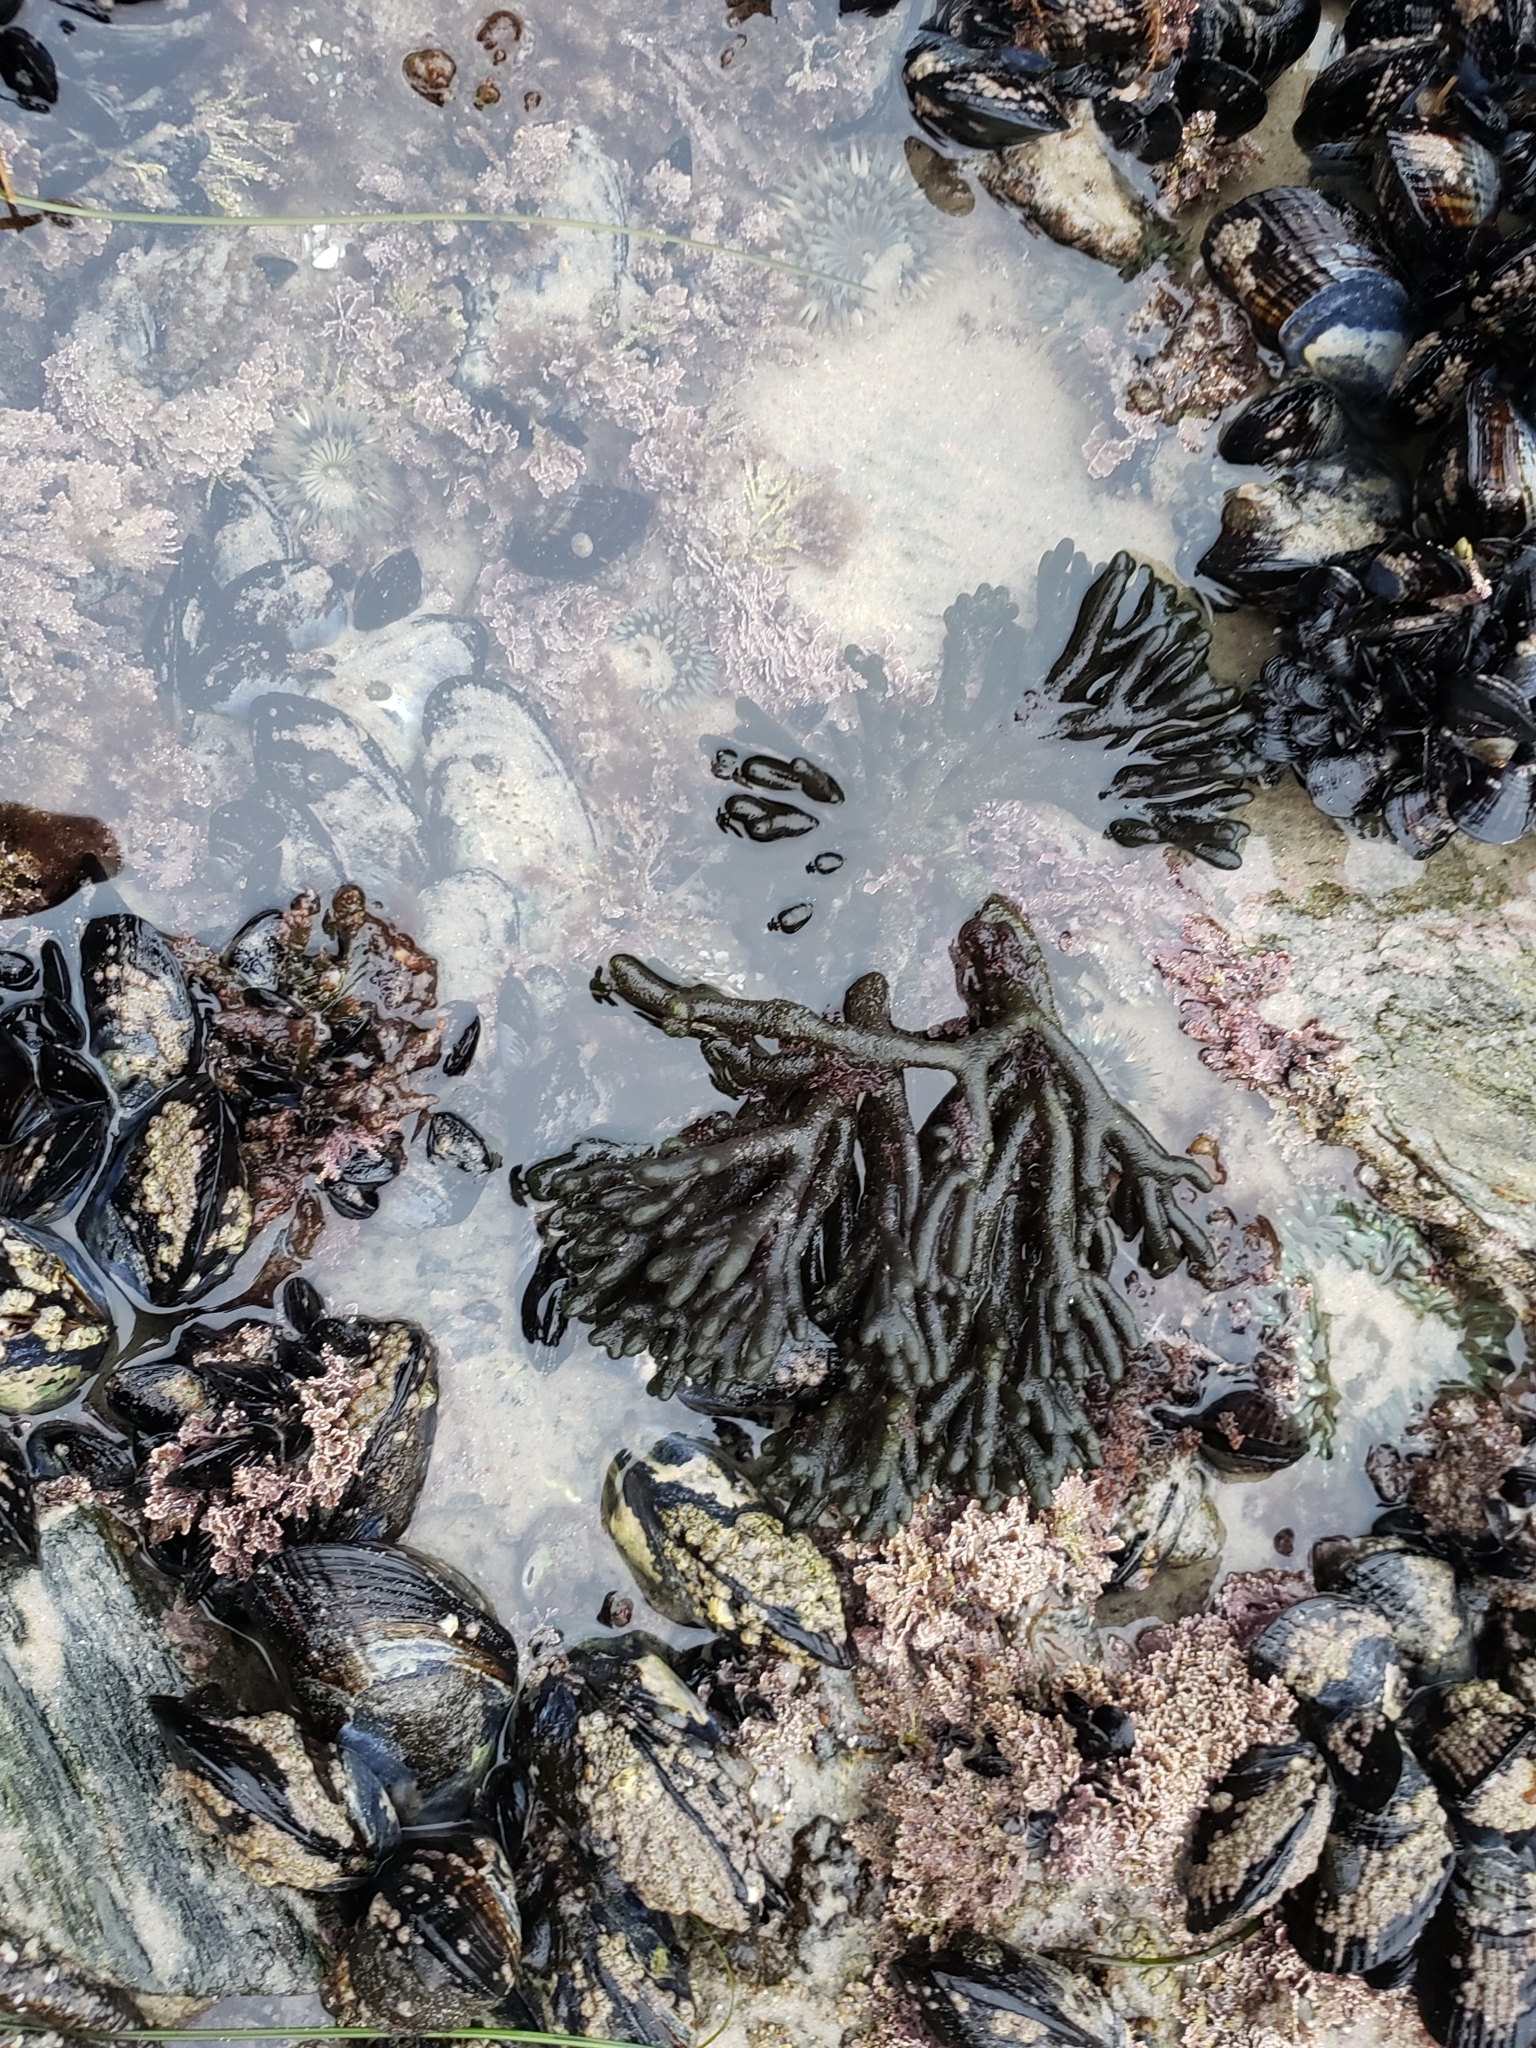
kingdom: Plantae
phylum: Chlorophyta
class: Ulvophyceae
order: Bryopsidales
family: Codiaceae
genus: Codium
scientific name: Codium fragile
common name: Dead man's fingers
